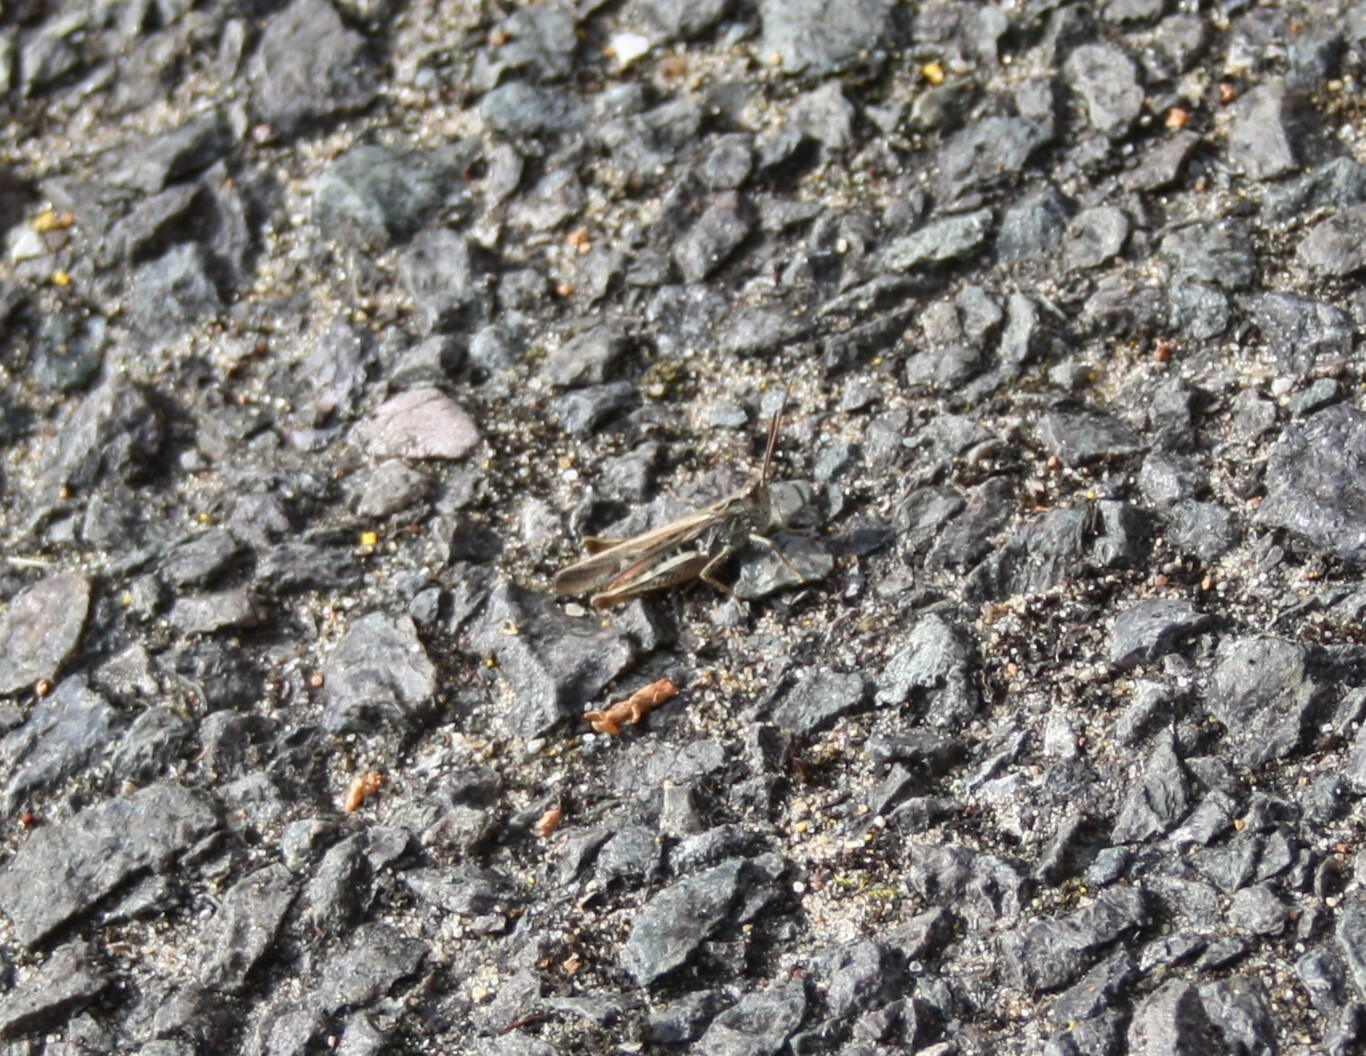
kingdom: Animalia
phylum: Arthropoda
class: Insecta
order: Orthoptera
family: Acrididae
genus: Chorthippus
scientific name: Chorthippus brunneus
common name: Field grasshopper
